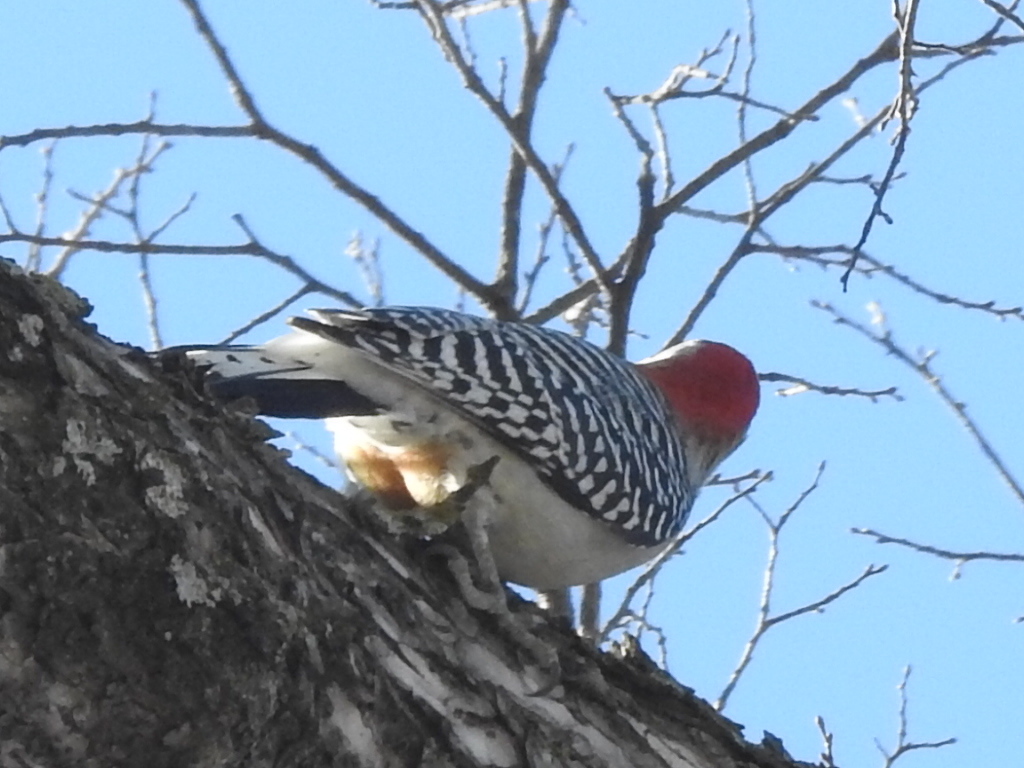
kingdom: Animalia
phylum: Chordata
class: Aves
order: Piciformes
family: Picidae
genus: Melanerpes
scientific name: Melanerpes carolinus
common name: Red-bellied woodpecker
